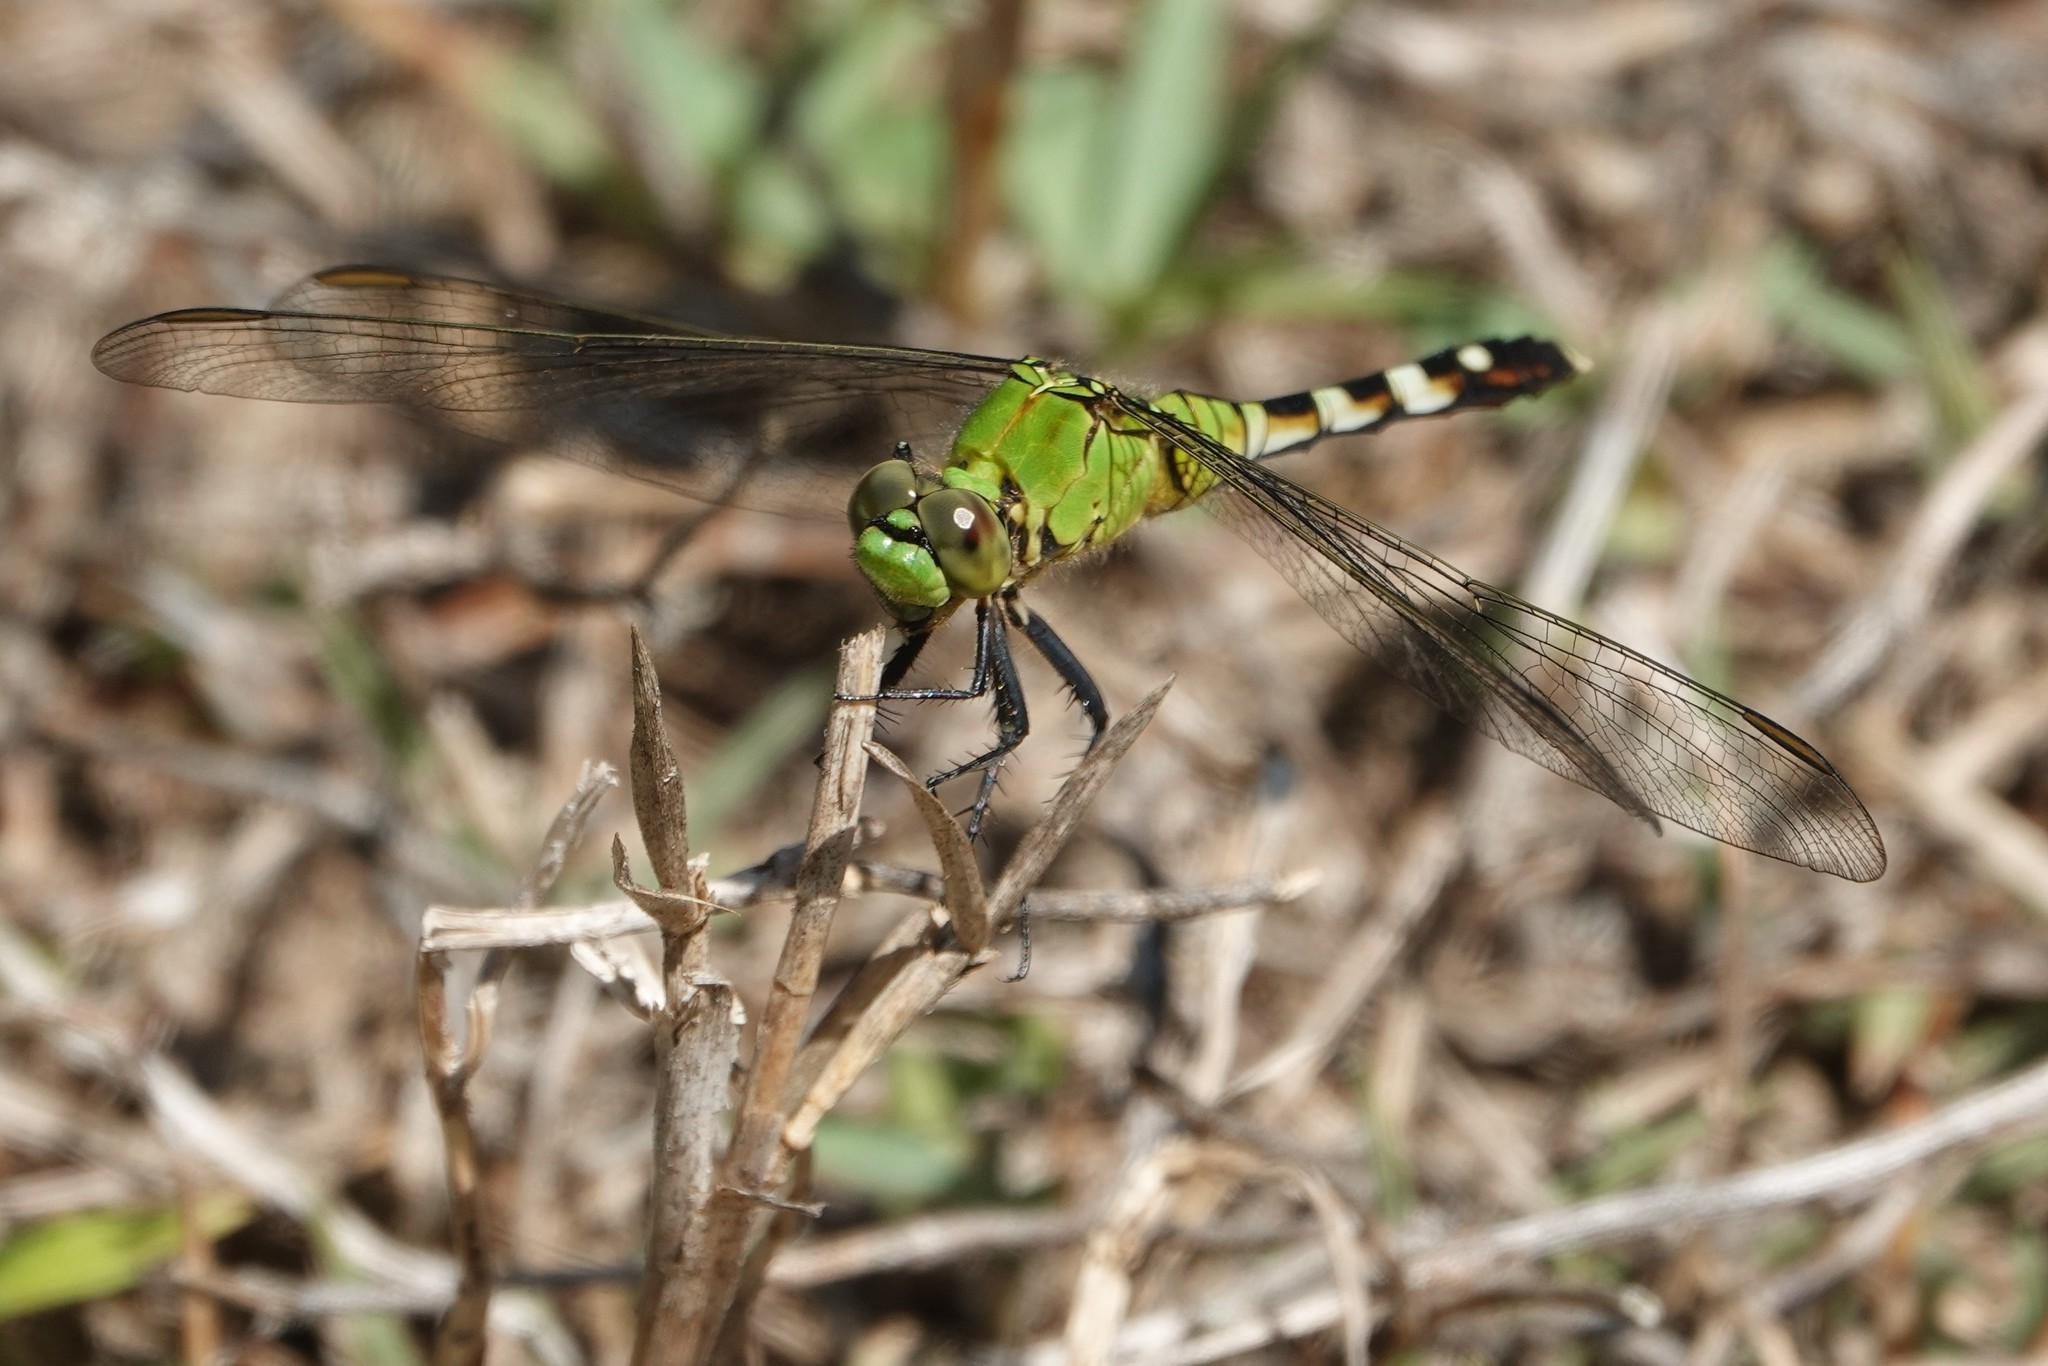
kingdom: Animalia
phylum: Arthropoda
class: Insecta
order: Odonata
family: Libellulidae
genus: Erythemis
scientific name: Erythemis simplicicollis
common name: Eastern pondhawk
